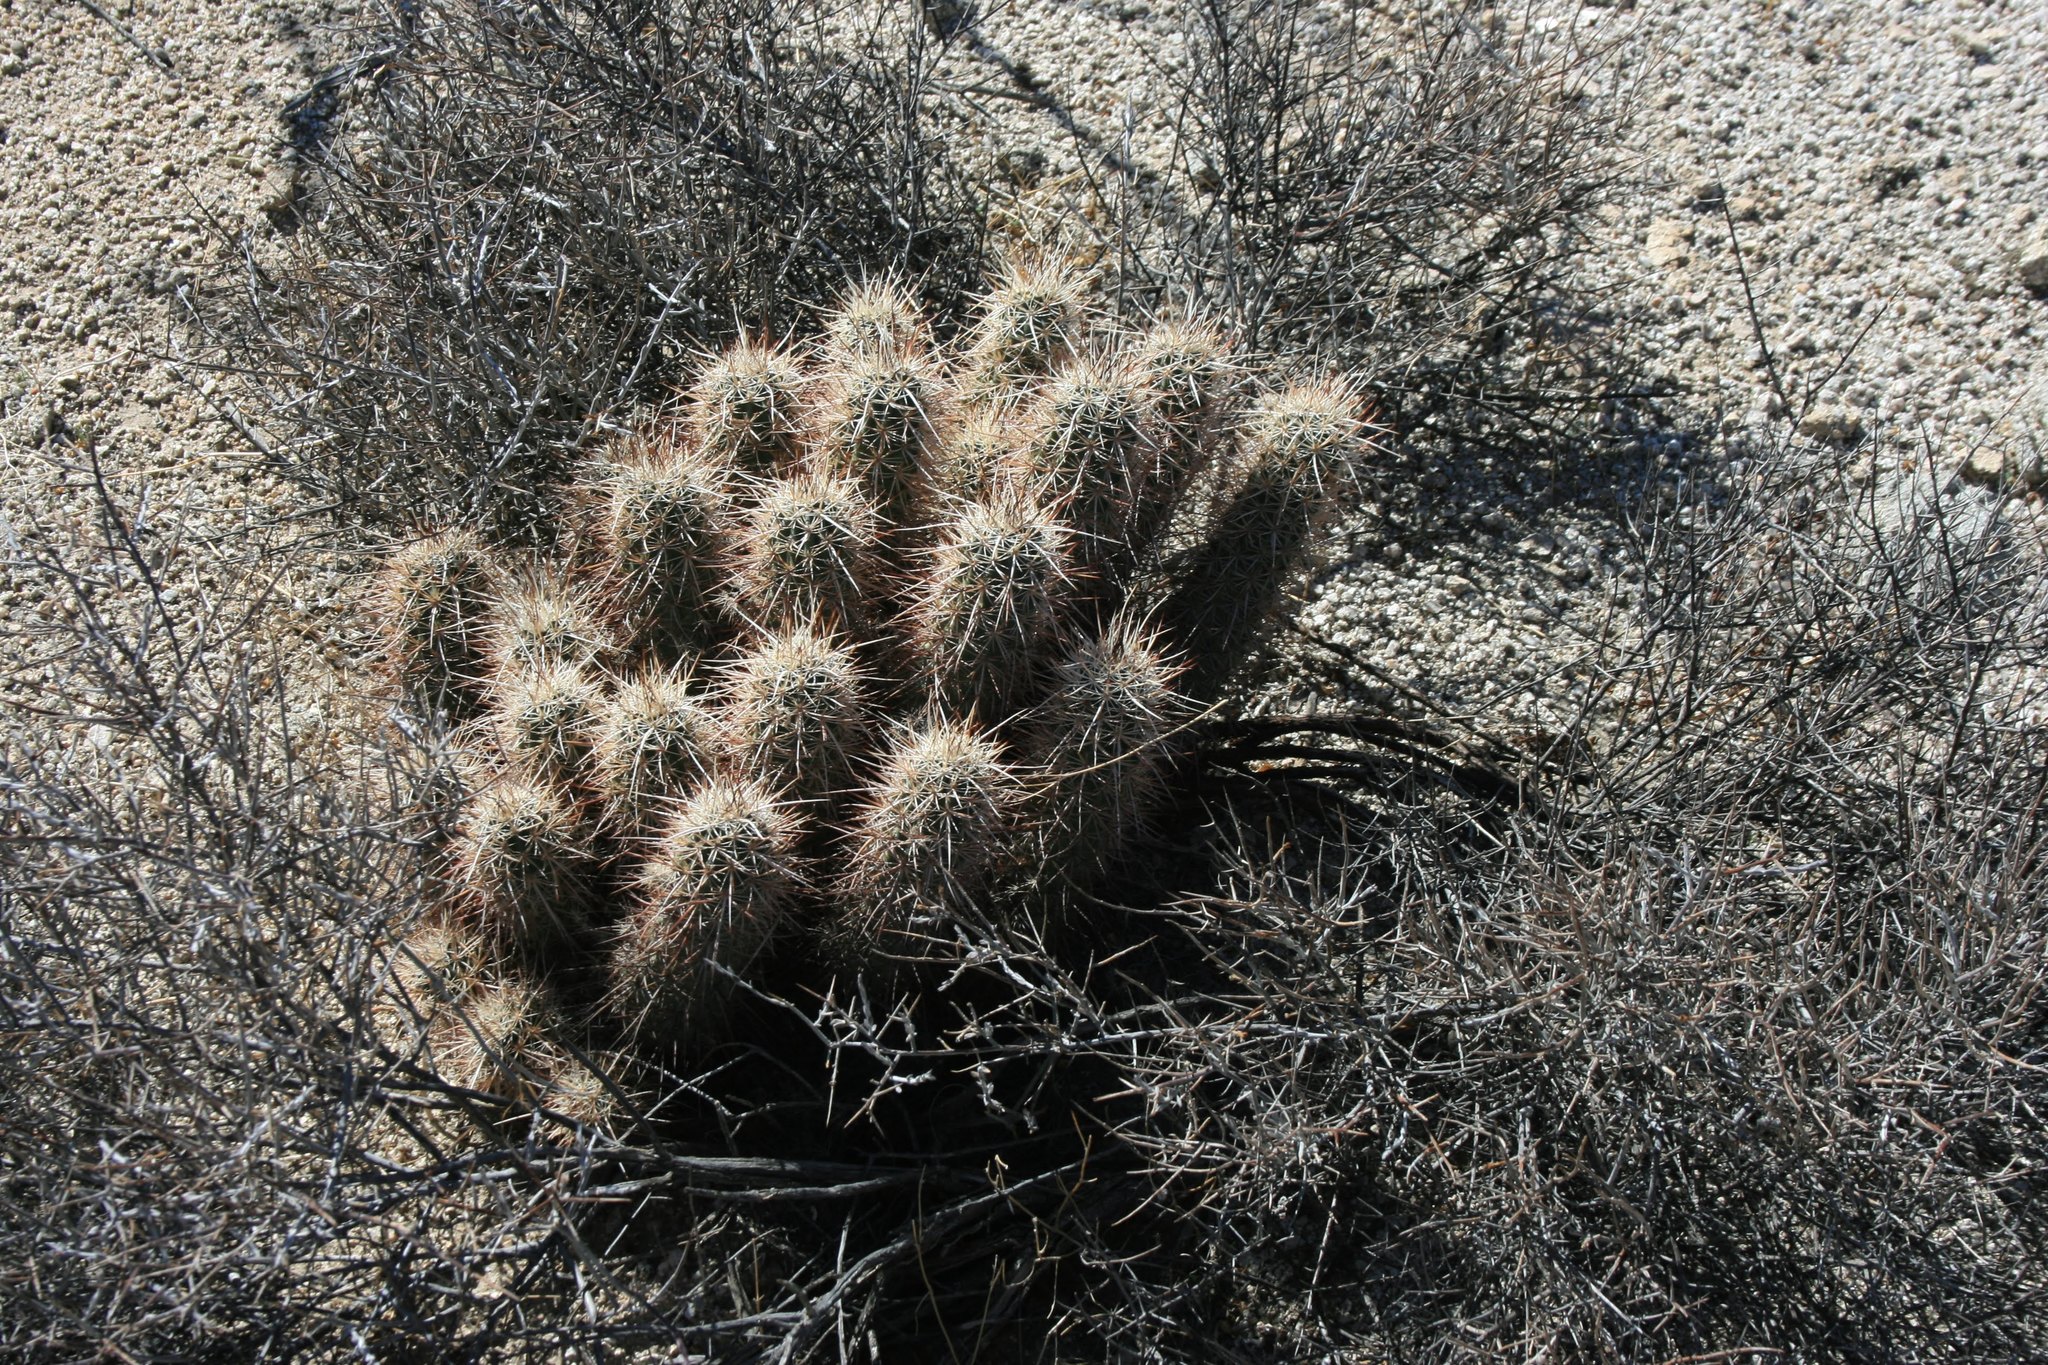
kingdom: Plantae
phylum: Tracheophyta
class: Magnoliopsida
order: Caryophyllales
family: Cactaceae
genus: Echinocereus
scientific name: Echinocereus engelmannii
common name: Engelmann's hedgehog cactus
